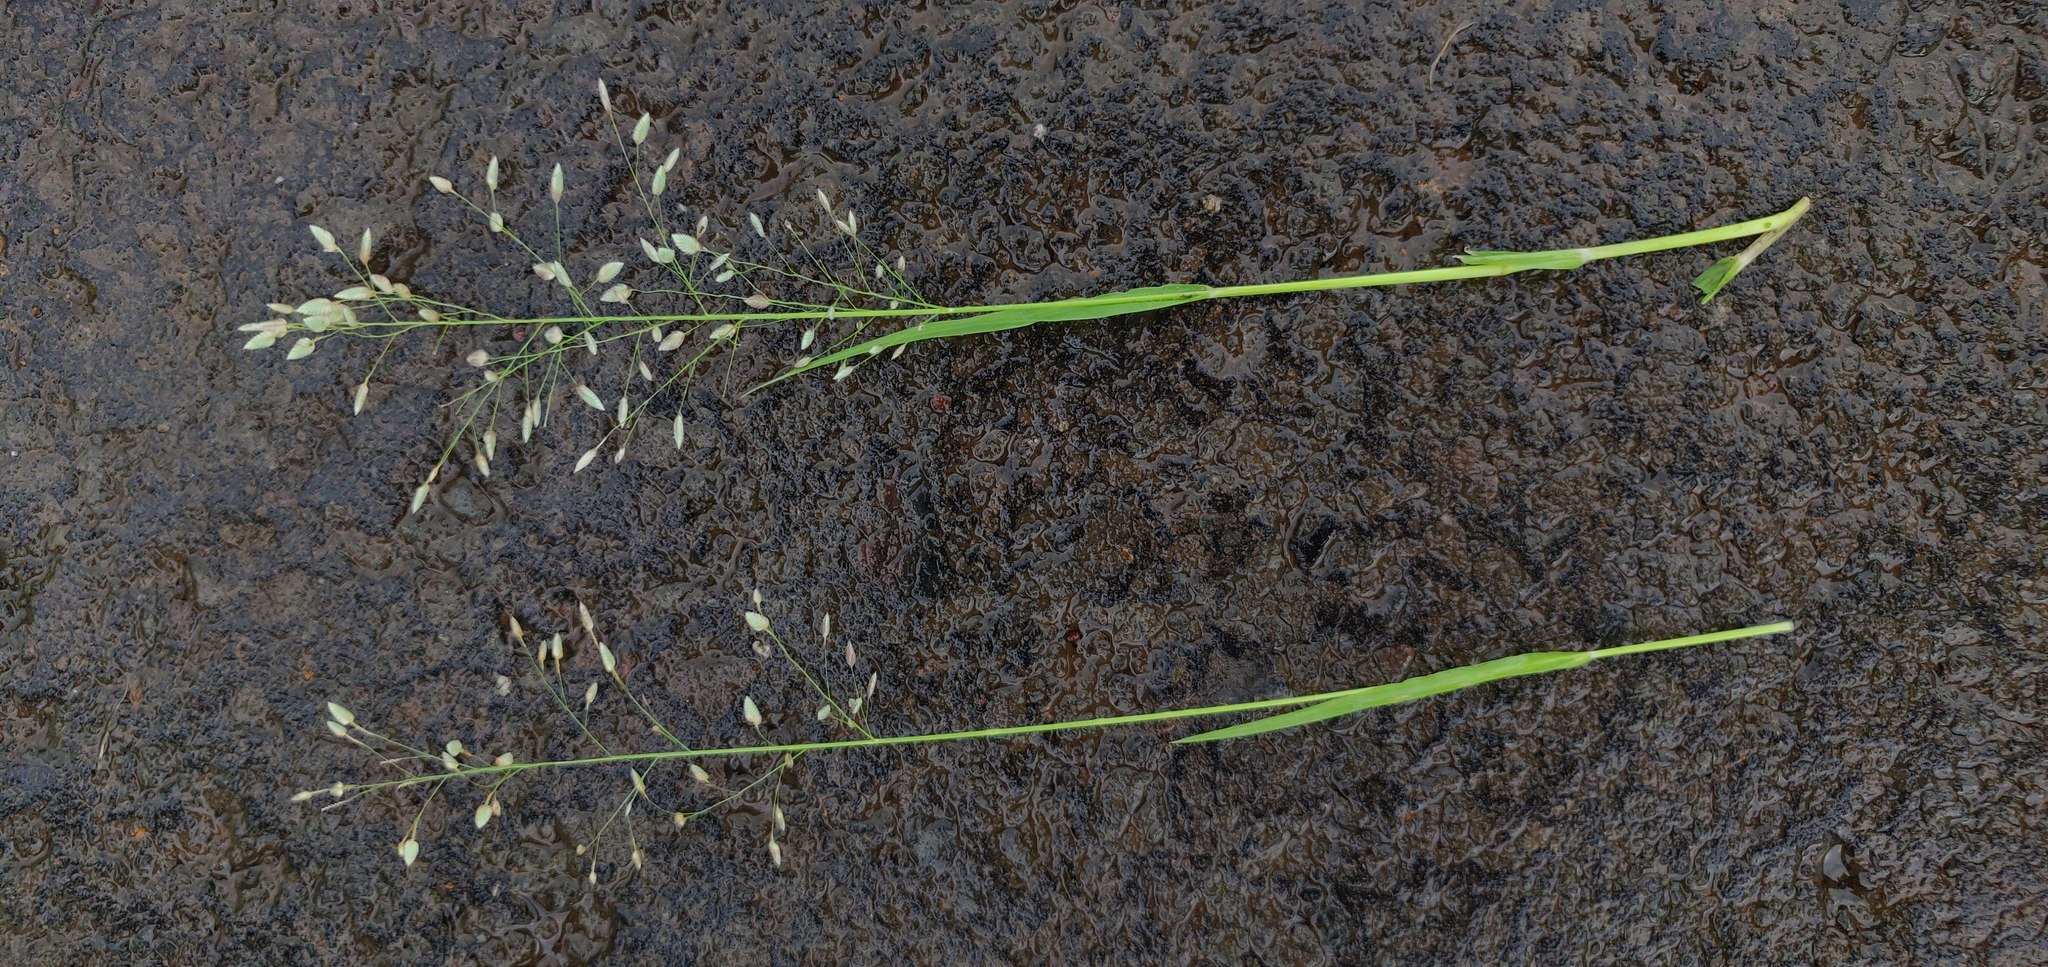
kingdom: Plantae
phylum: Tracheophyta
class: Liliopsida
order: Poales
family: Poaceae
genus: Eragrostis
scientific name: Eragrostis cilianensis
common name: Stinkgrass
